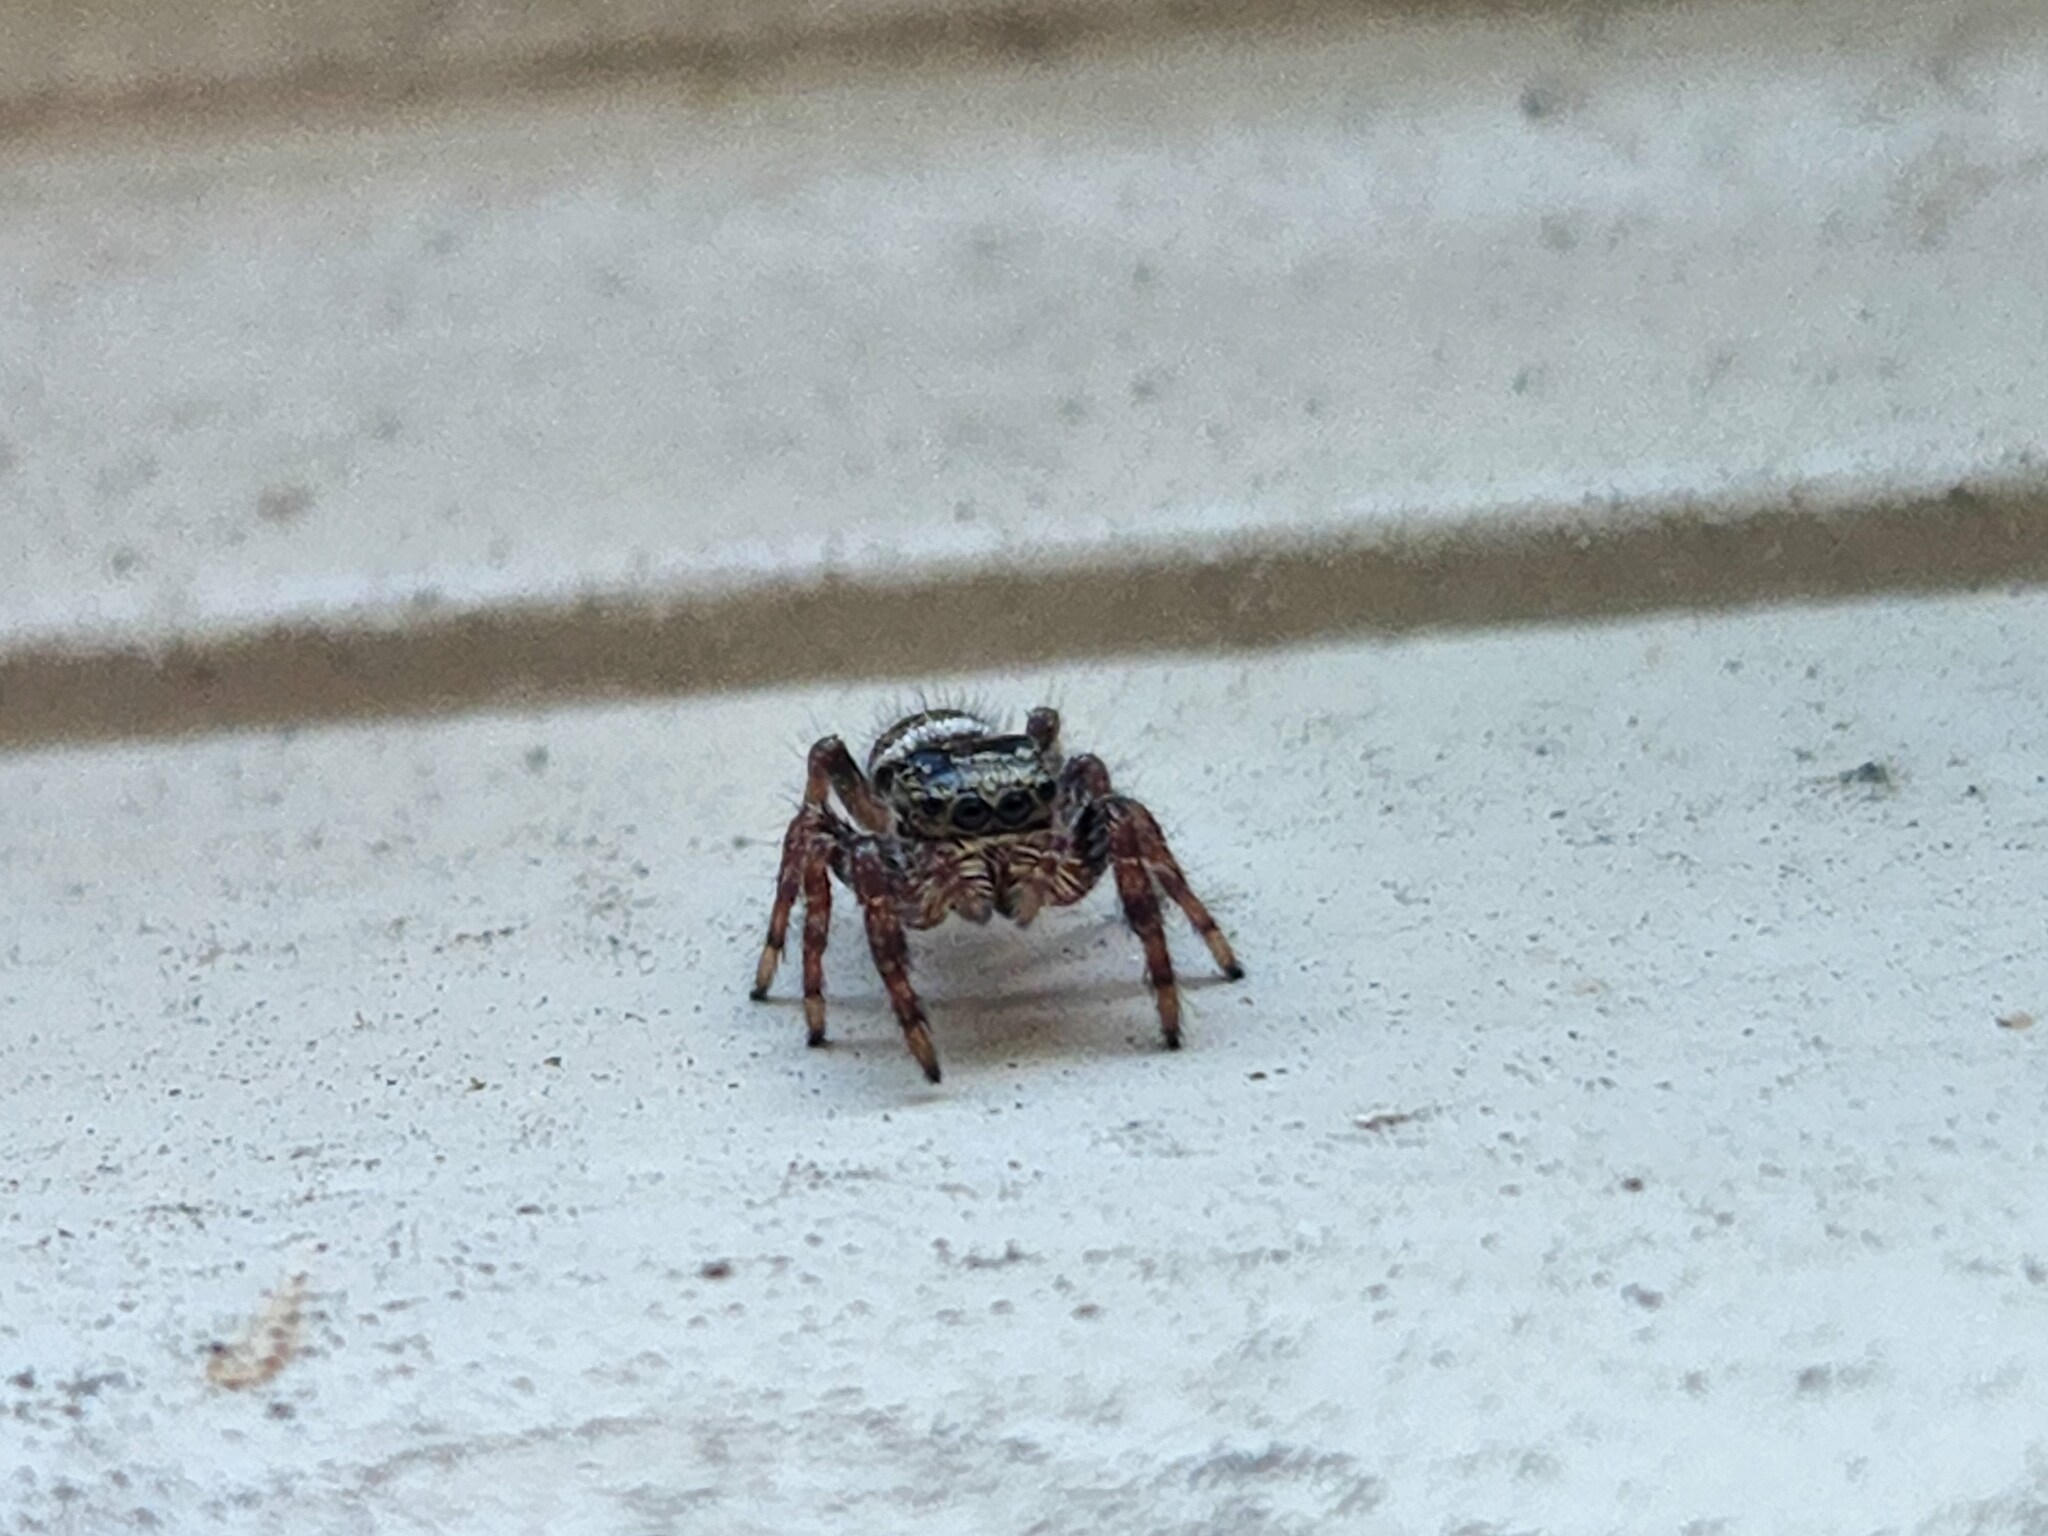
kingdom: Animalia
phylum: Arthropoda
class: Arachnida
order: Araneae
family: Salticidae
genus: Phidippus
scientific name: Phidippus audax
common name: Bold jumper
